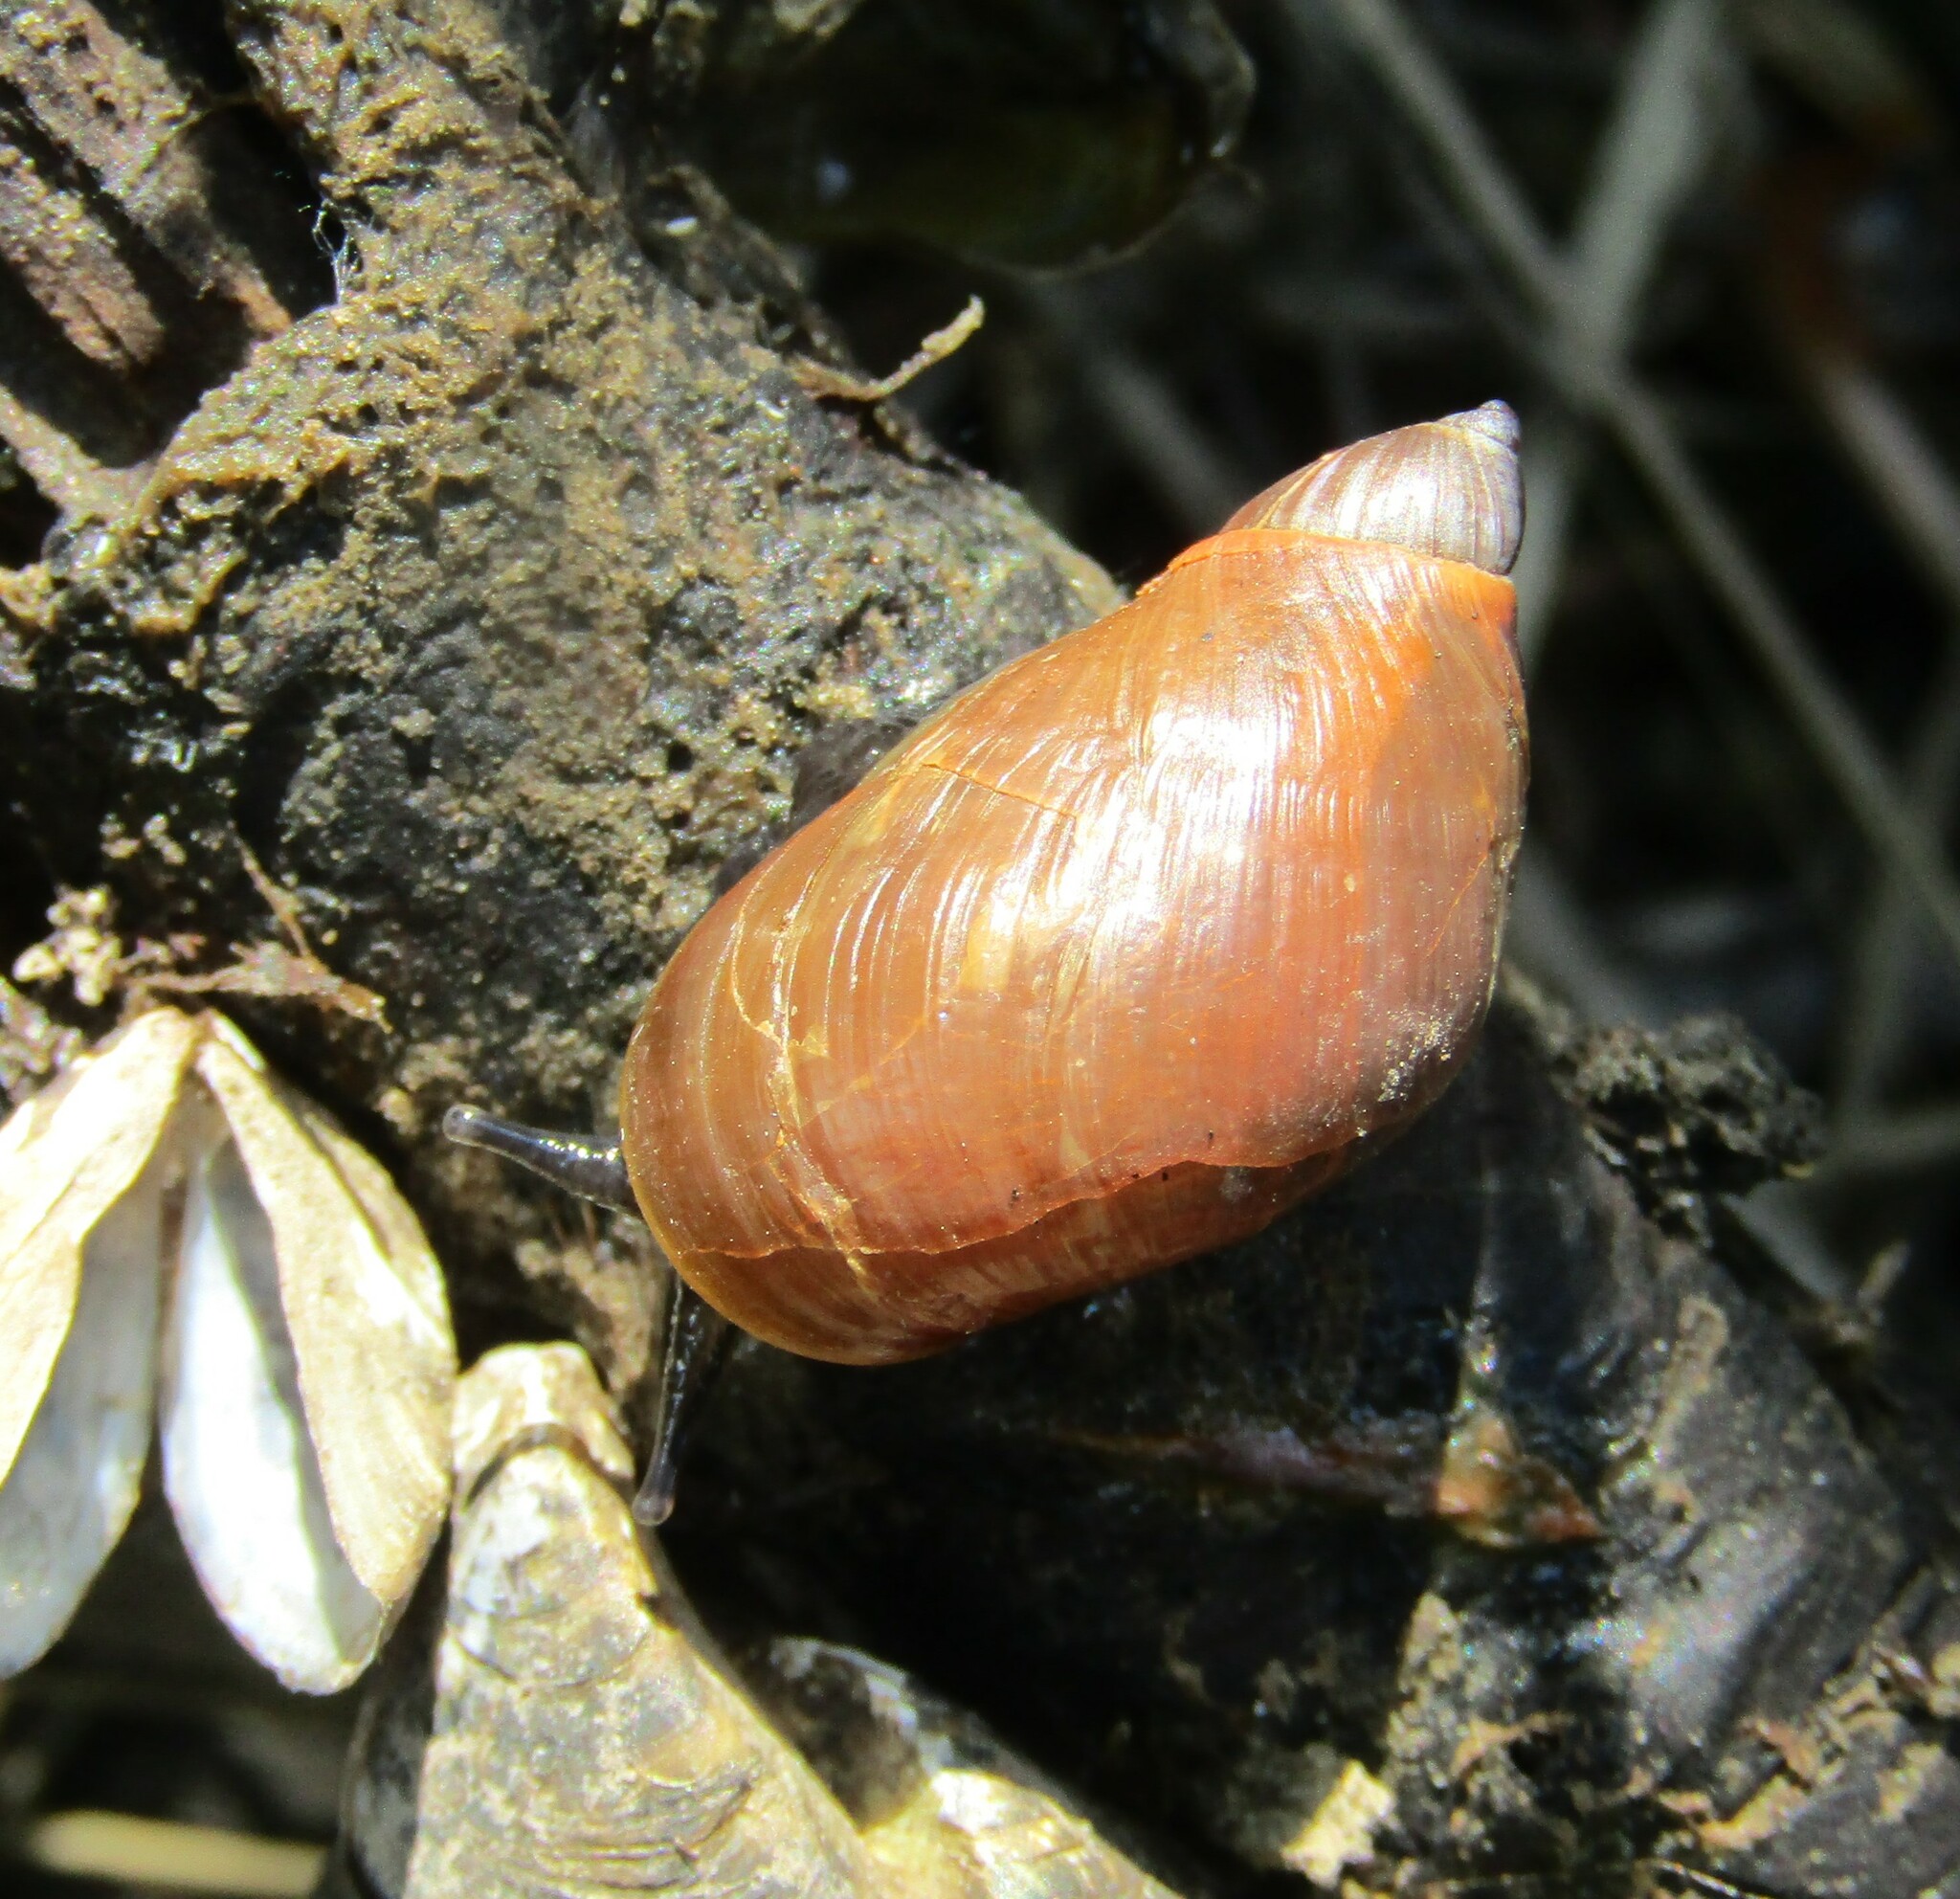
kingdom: Animalia
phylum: Mollusca
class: Gastropoda
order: Stylommatophora
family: Succineidae
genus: Succinea
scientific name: Succinea putris
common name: European ambersnail
